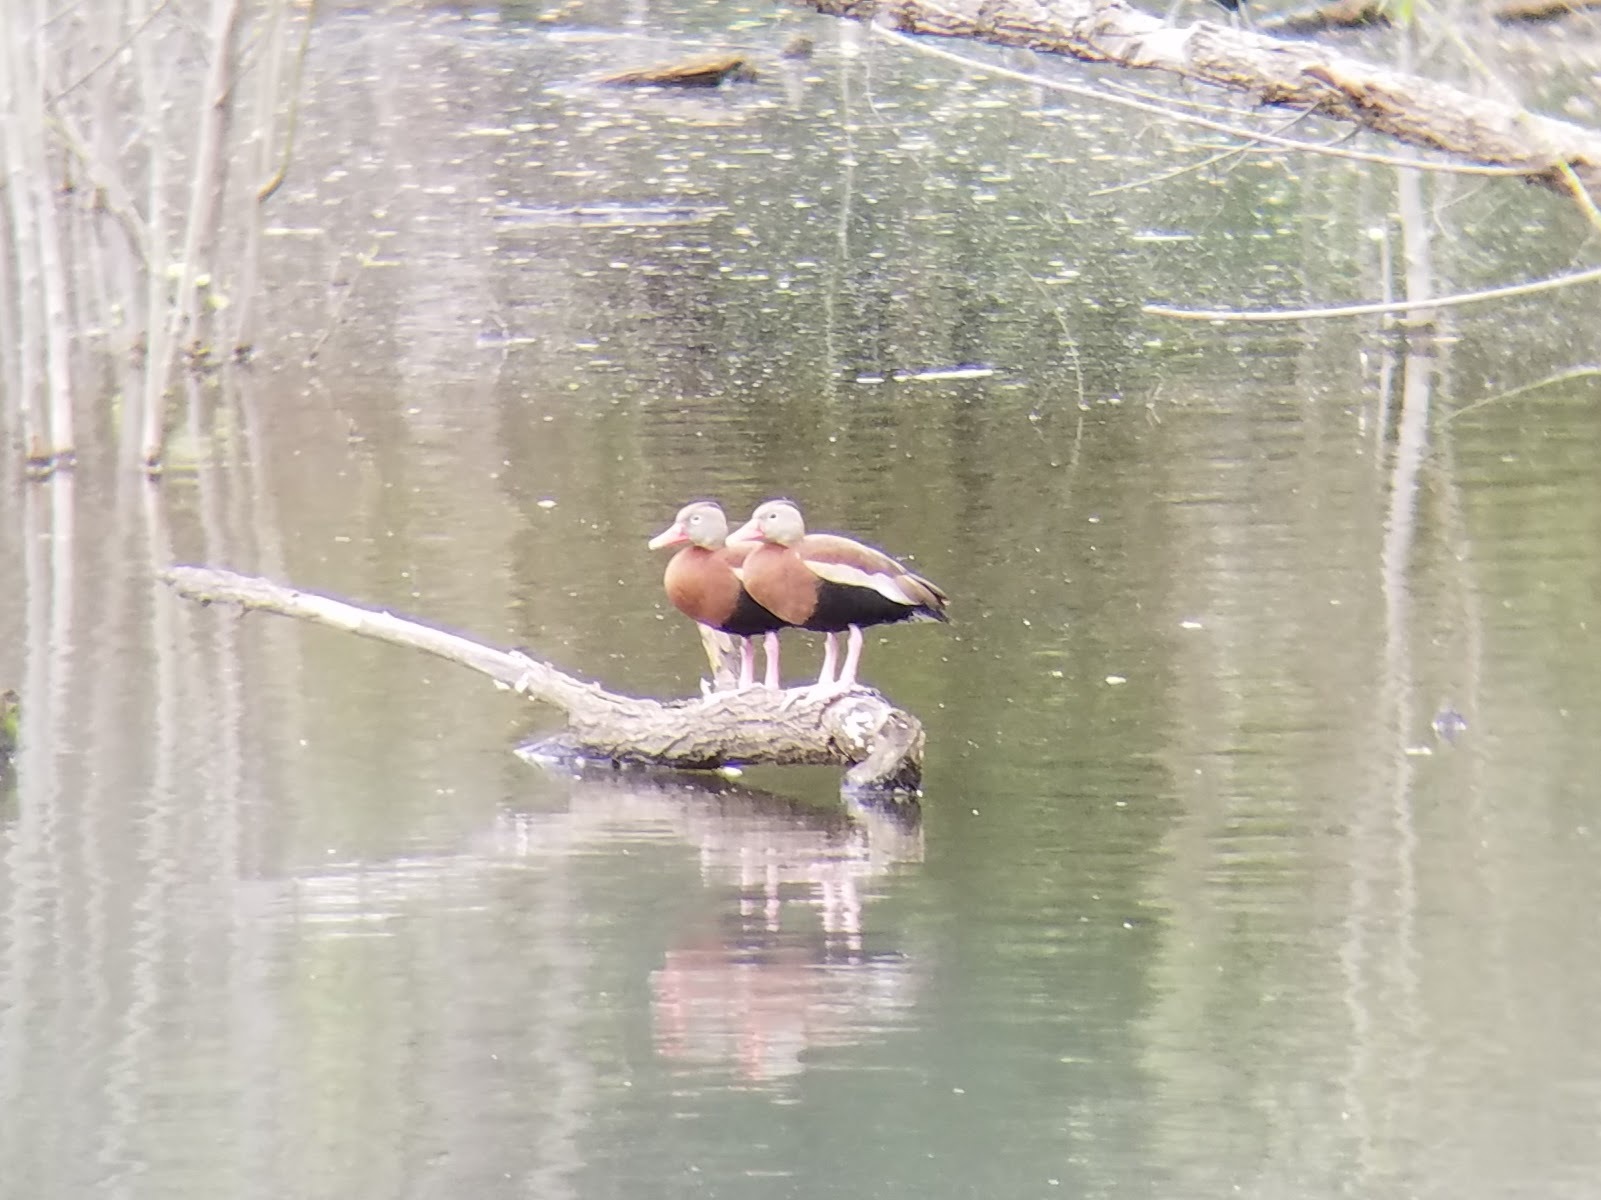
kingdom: Animalia
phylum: Chordata
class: Aves
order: Anseriformes
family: Anatidae
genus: Dendrocygna
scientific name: Dendrocygna autumnalis
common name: Black-bellied whistling duck
